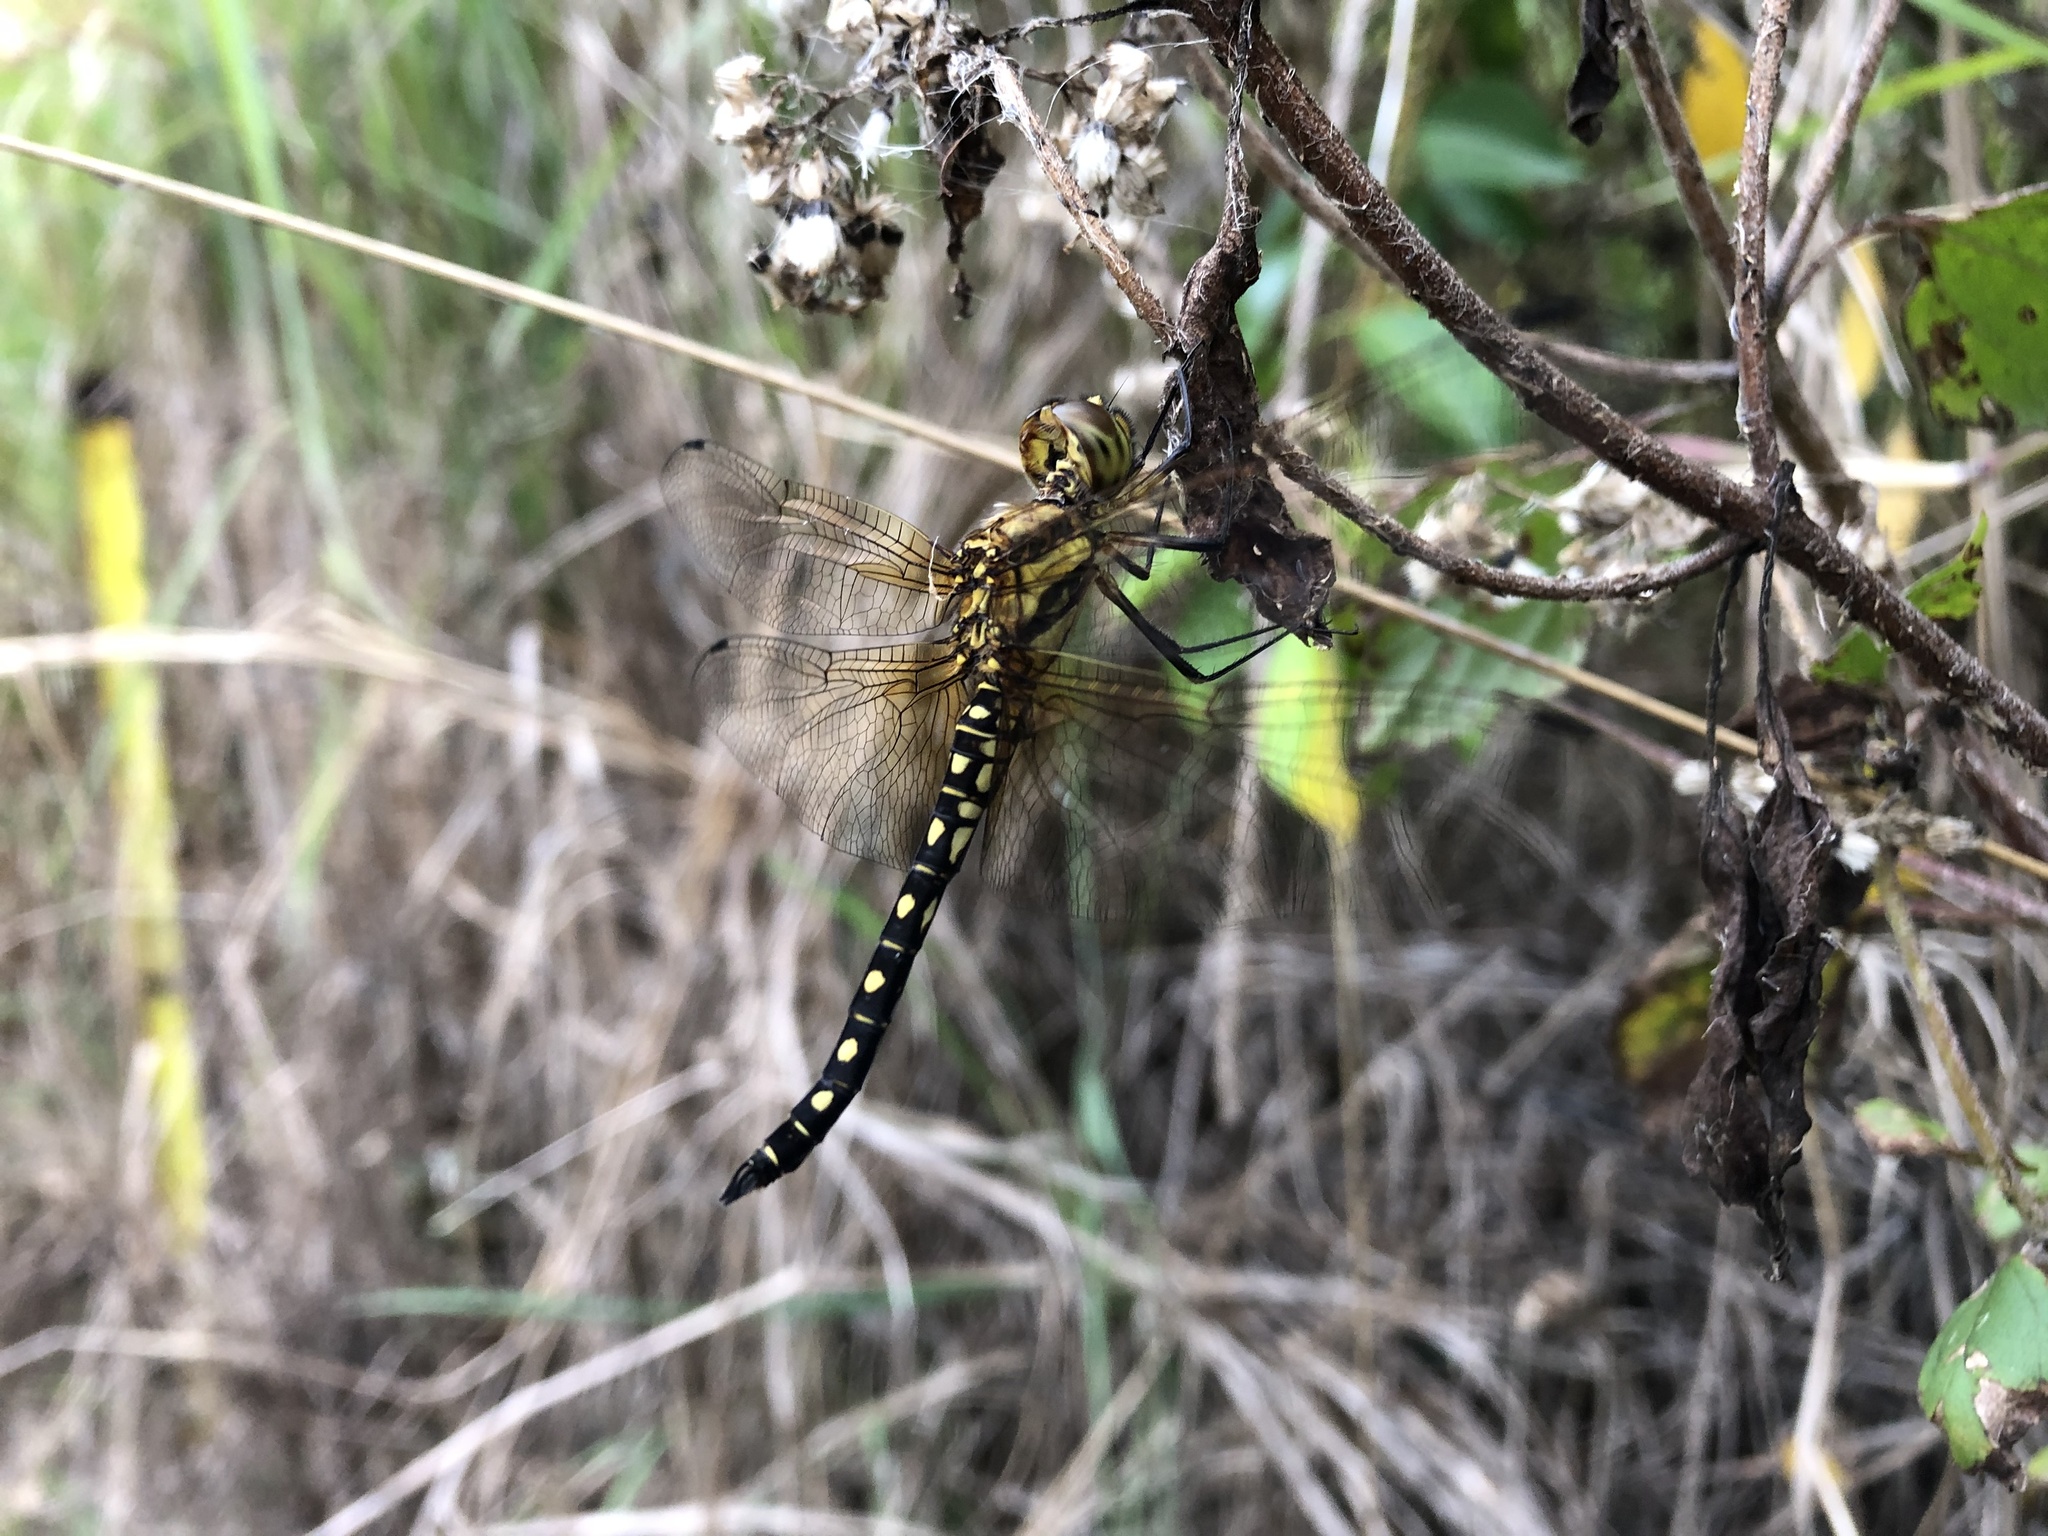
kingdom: Animalia
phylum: Arthropoda
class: Insecta
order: Odonata
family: Libellulidae
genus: Hydrobasileus
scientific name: Hydrobasileus brevistylus
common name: Water prince
